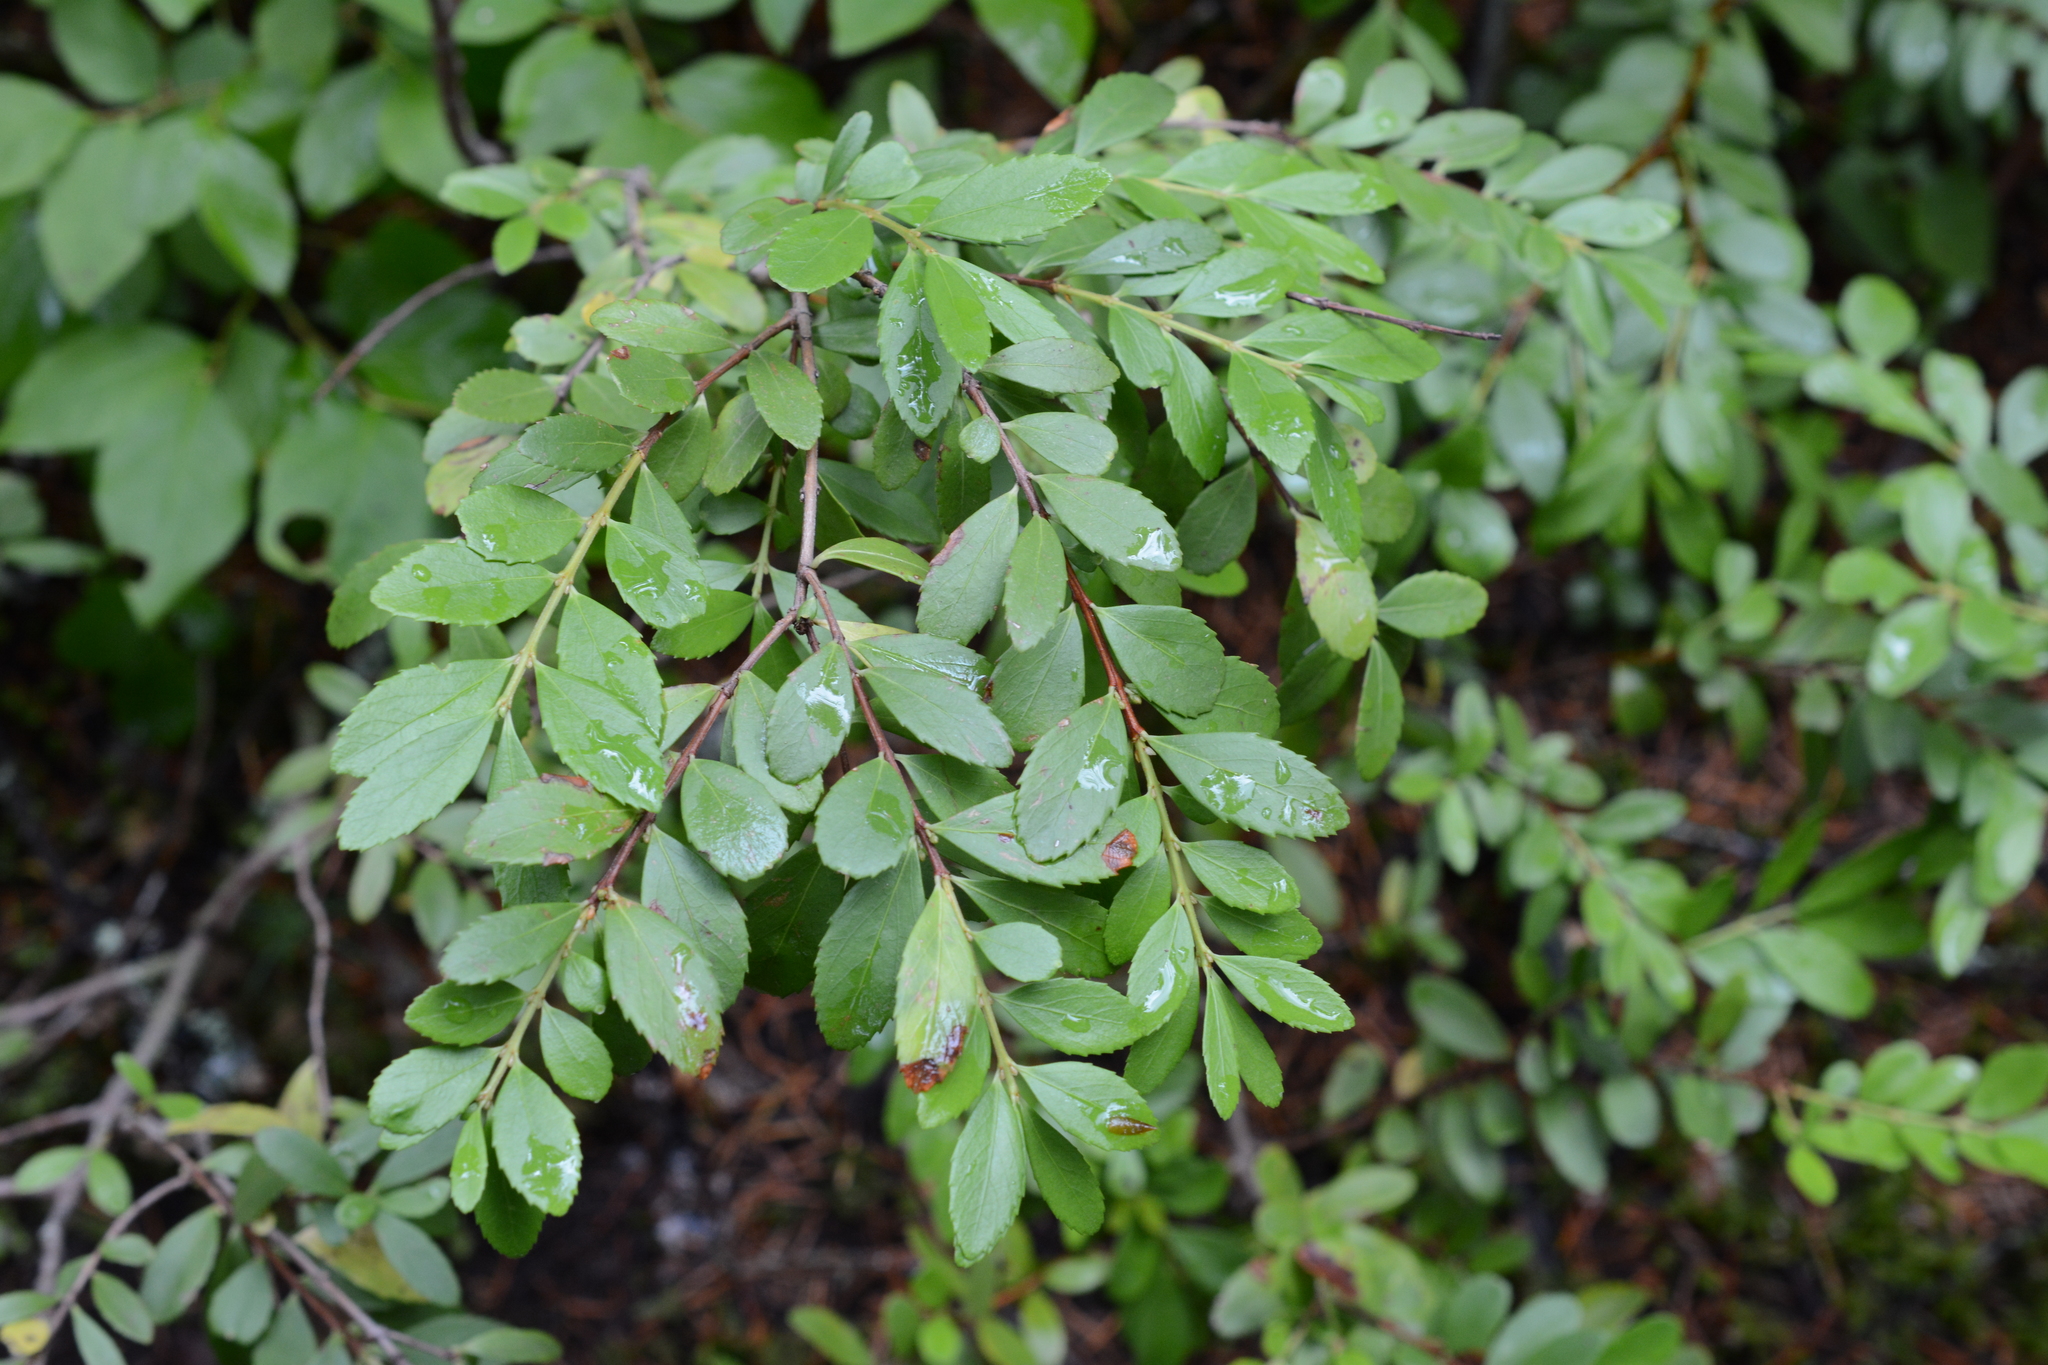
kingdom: Plantae
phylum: Tracheophyta
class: Magnoliopsida
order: Celastrales
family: Celastraceae
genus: Paxistima
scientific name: Paxistima myrsinites
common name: Mountain-lover
